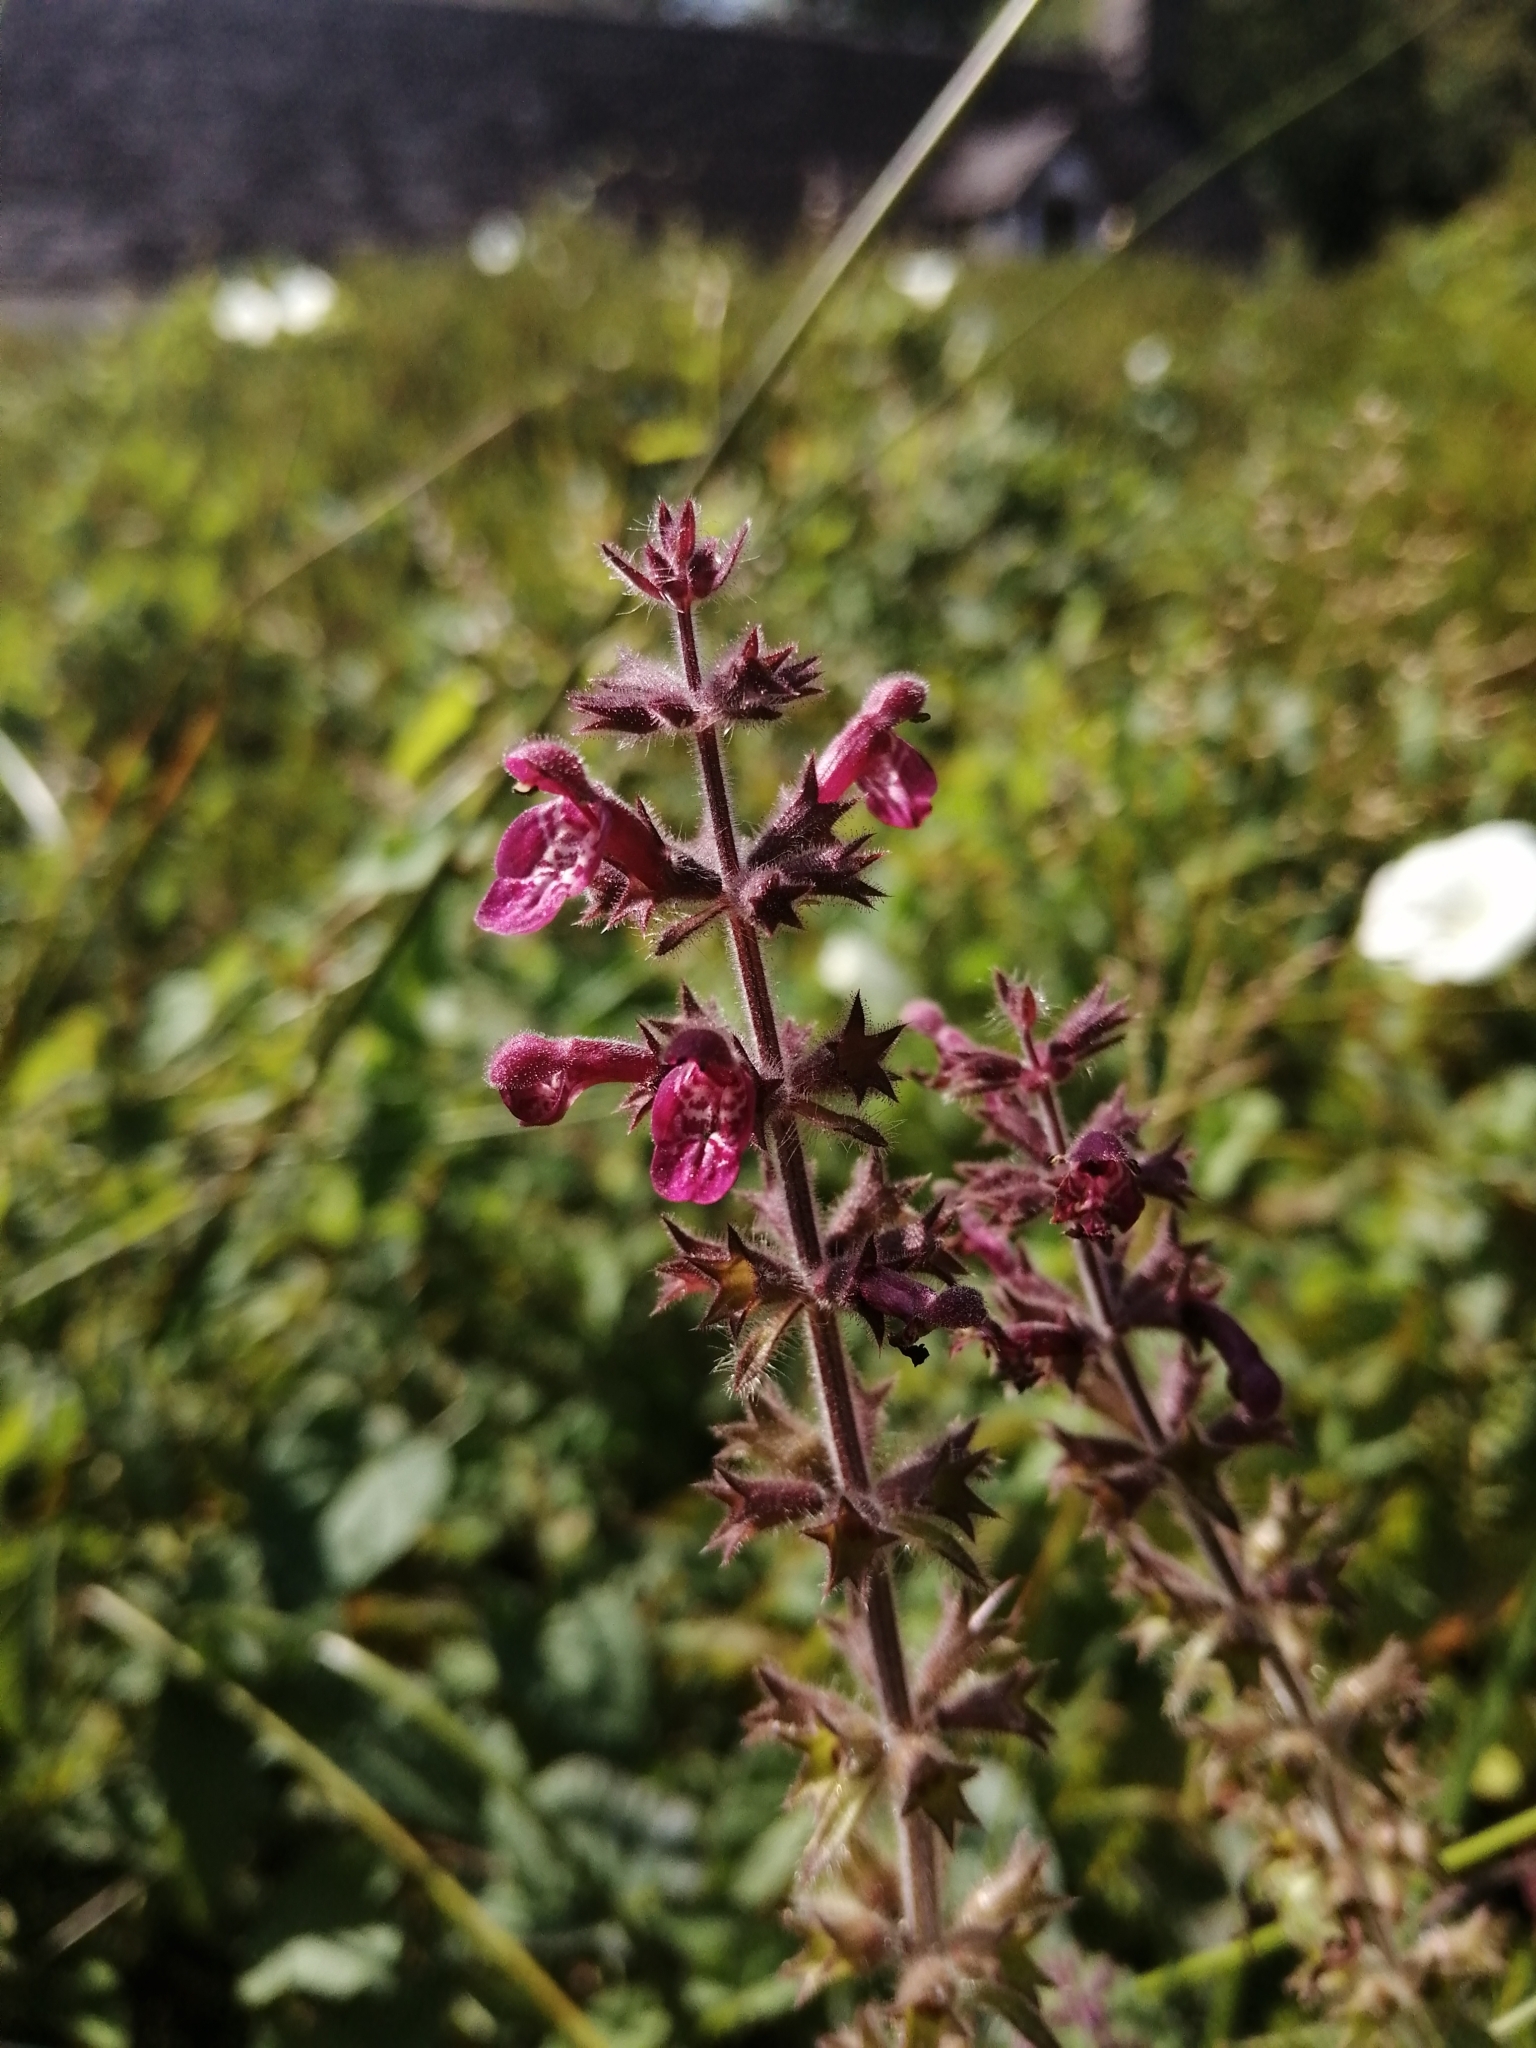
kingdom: Plantae
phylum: Tracheophyta
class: Magnoliopsida
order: Lamiales
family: Lamiaceae
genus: Stachys
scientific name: Stachys sylvatica
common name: Hedge woundwort
